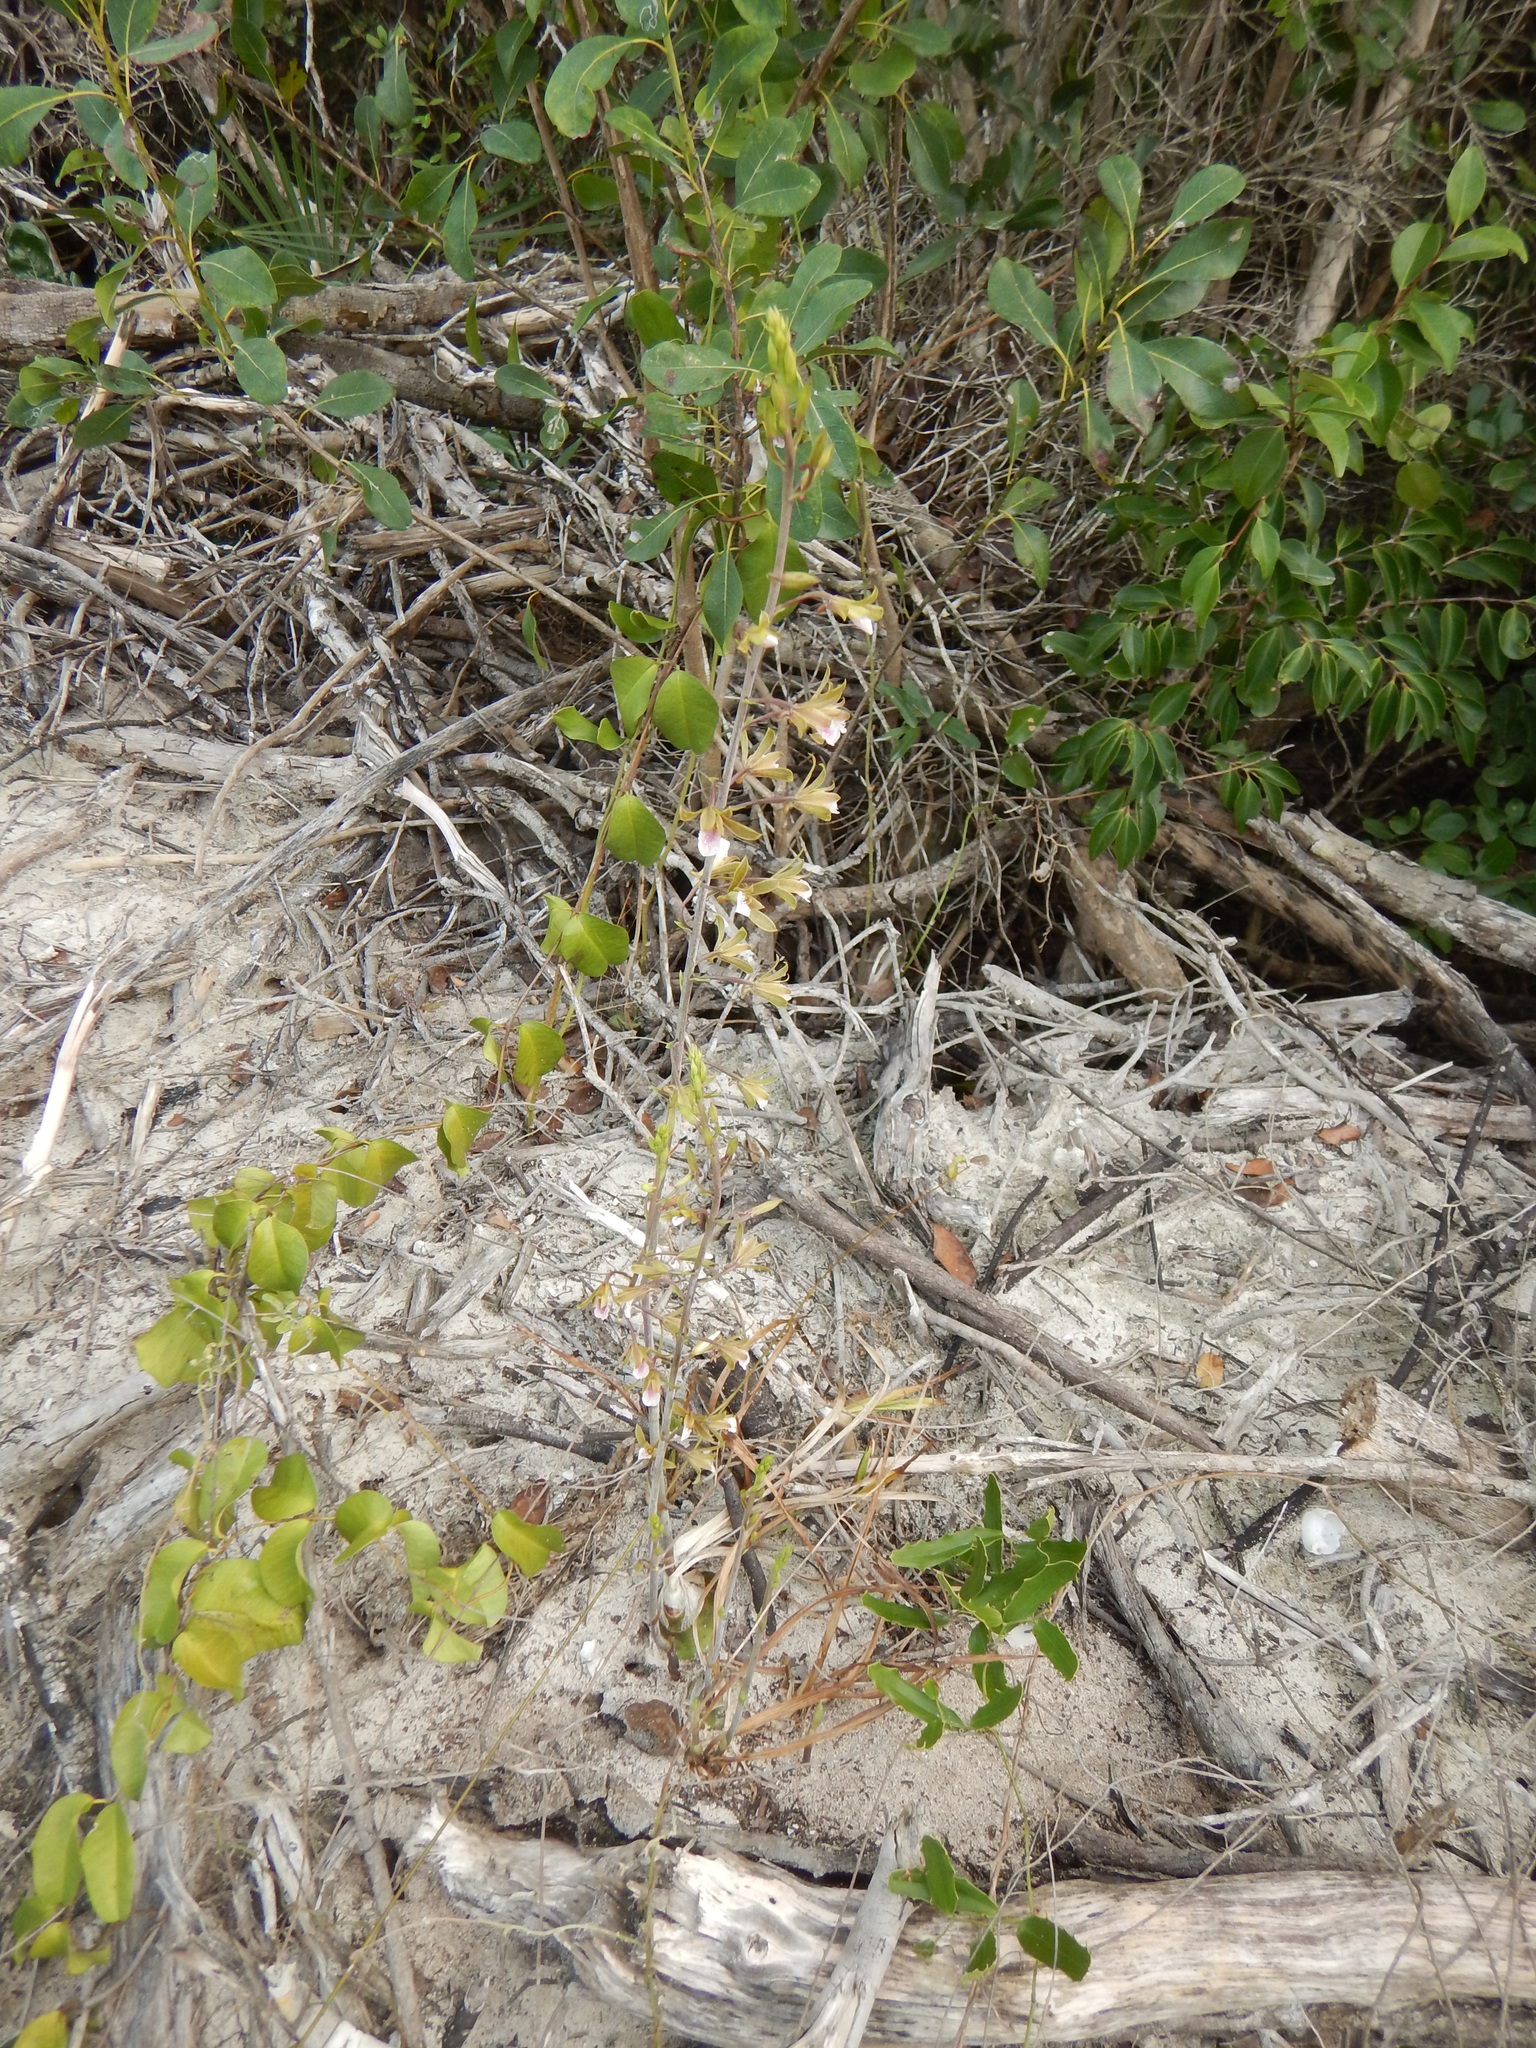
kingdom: Plantae
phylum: Tracheophyta
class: Liliopsida
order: Asparagales
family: Orchidaceae
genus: Eulophia
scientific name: Eulophia graminea
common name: Orchid
